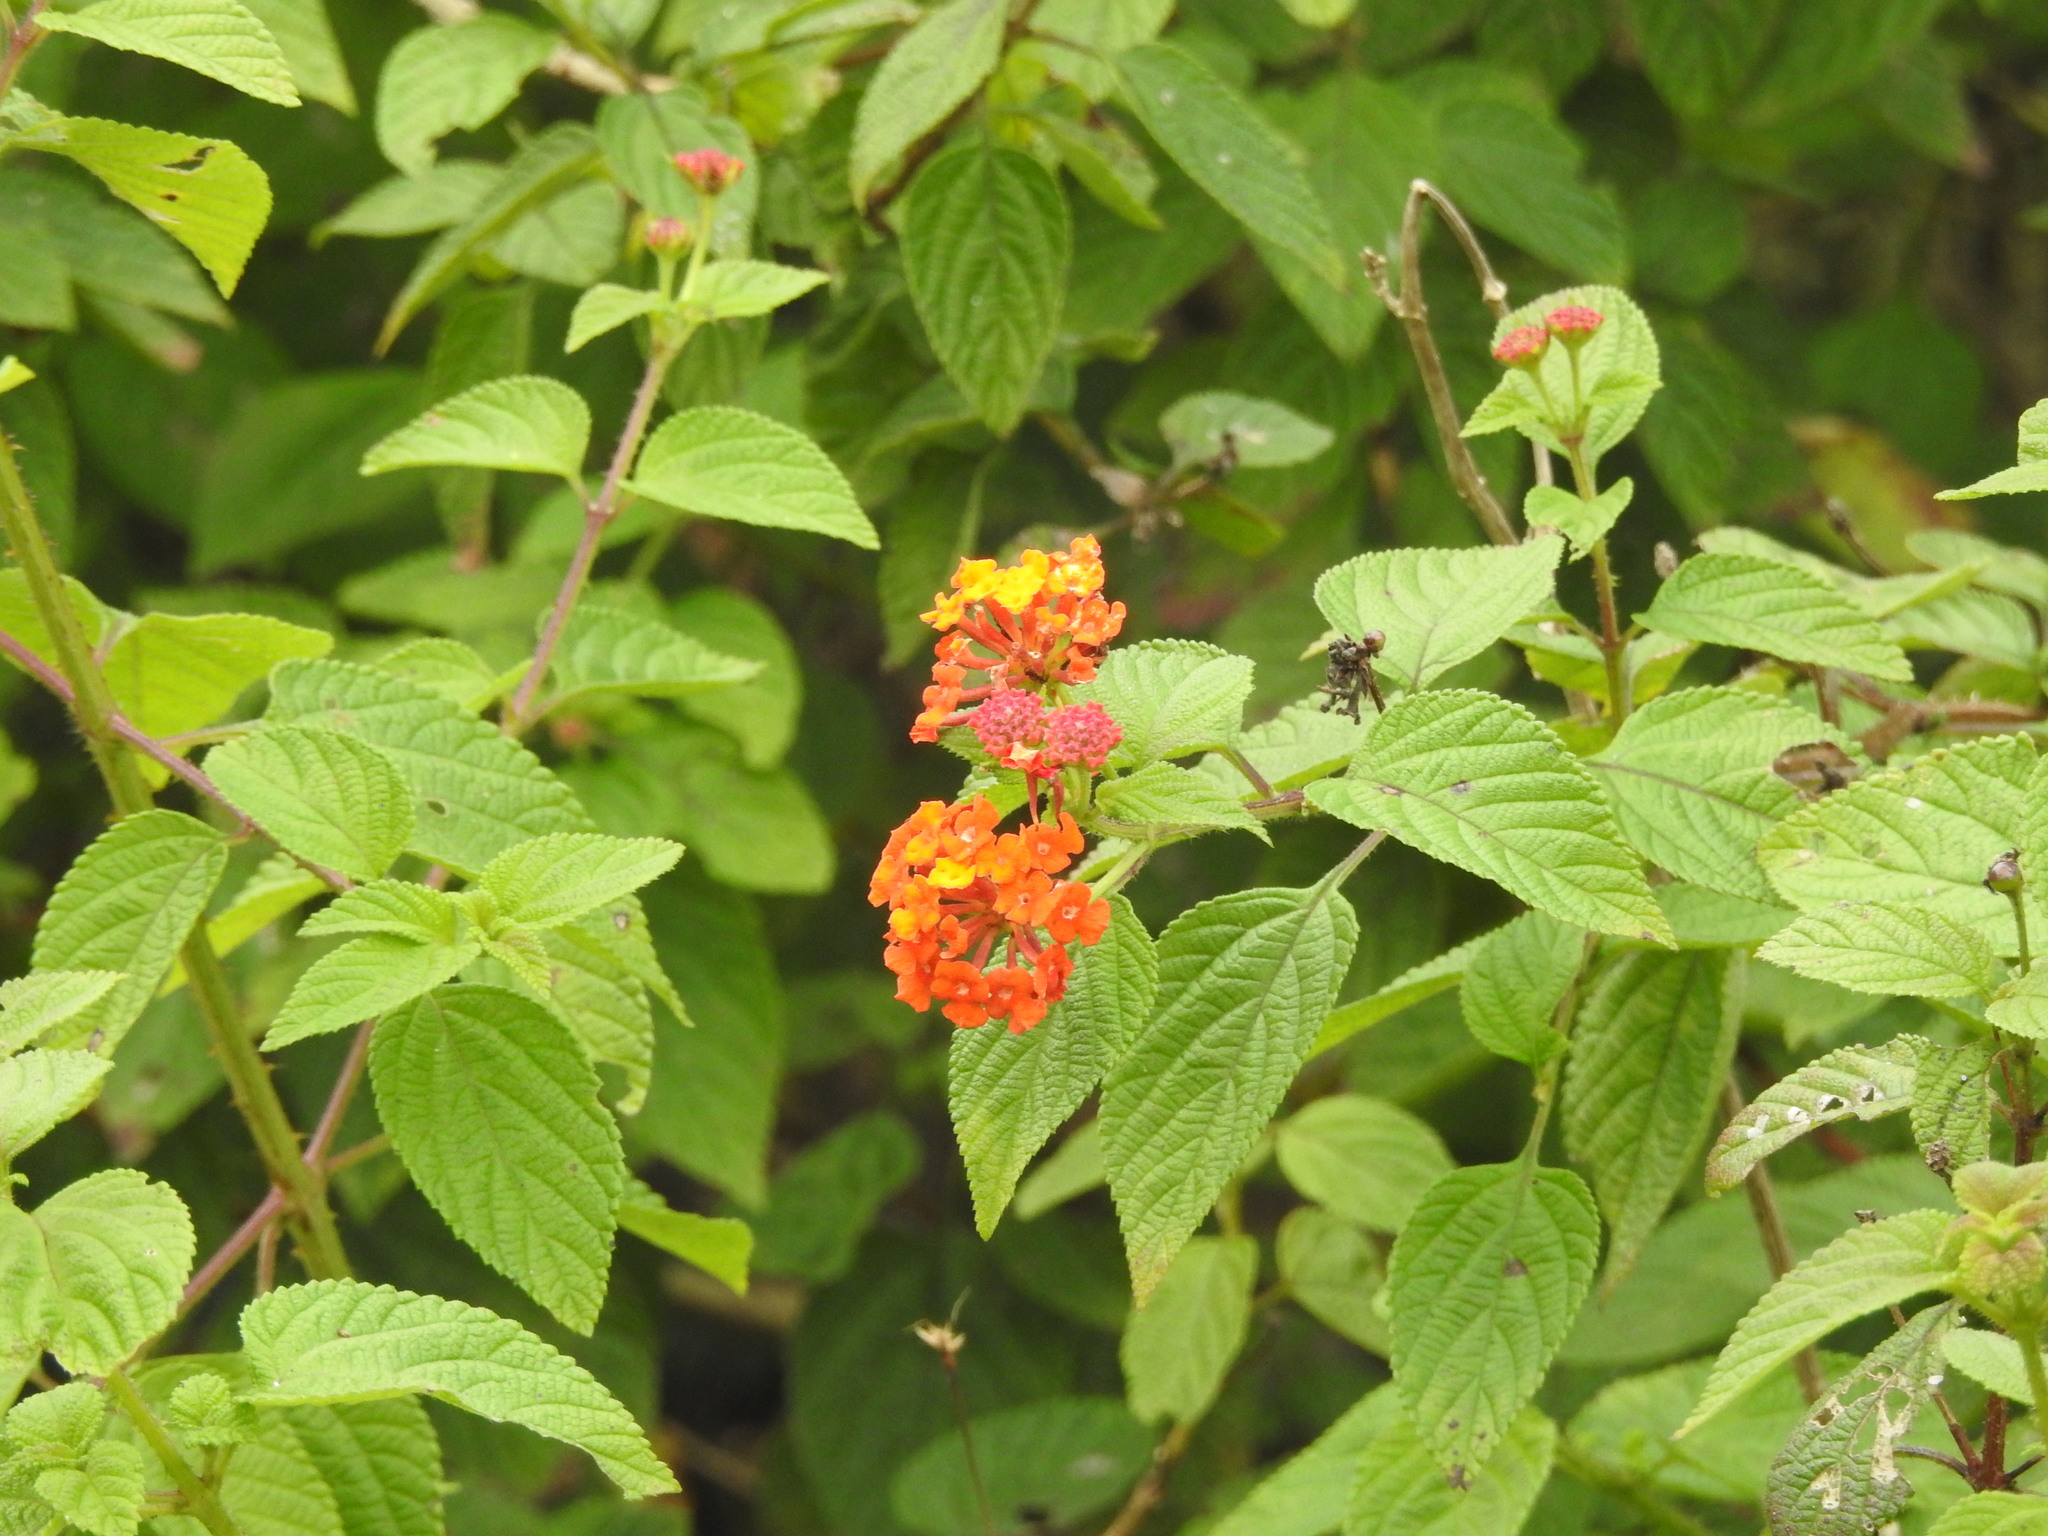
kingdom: Plantae
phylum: Tracheophyta
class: Magnoliopsida
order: Lamiales
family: Verbenaceae
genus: Lantana
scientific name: Lantana camara
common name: Lantana
